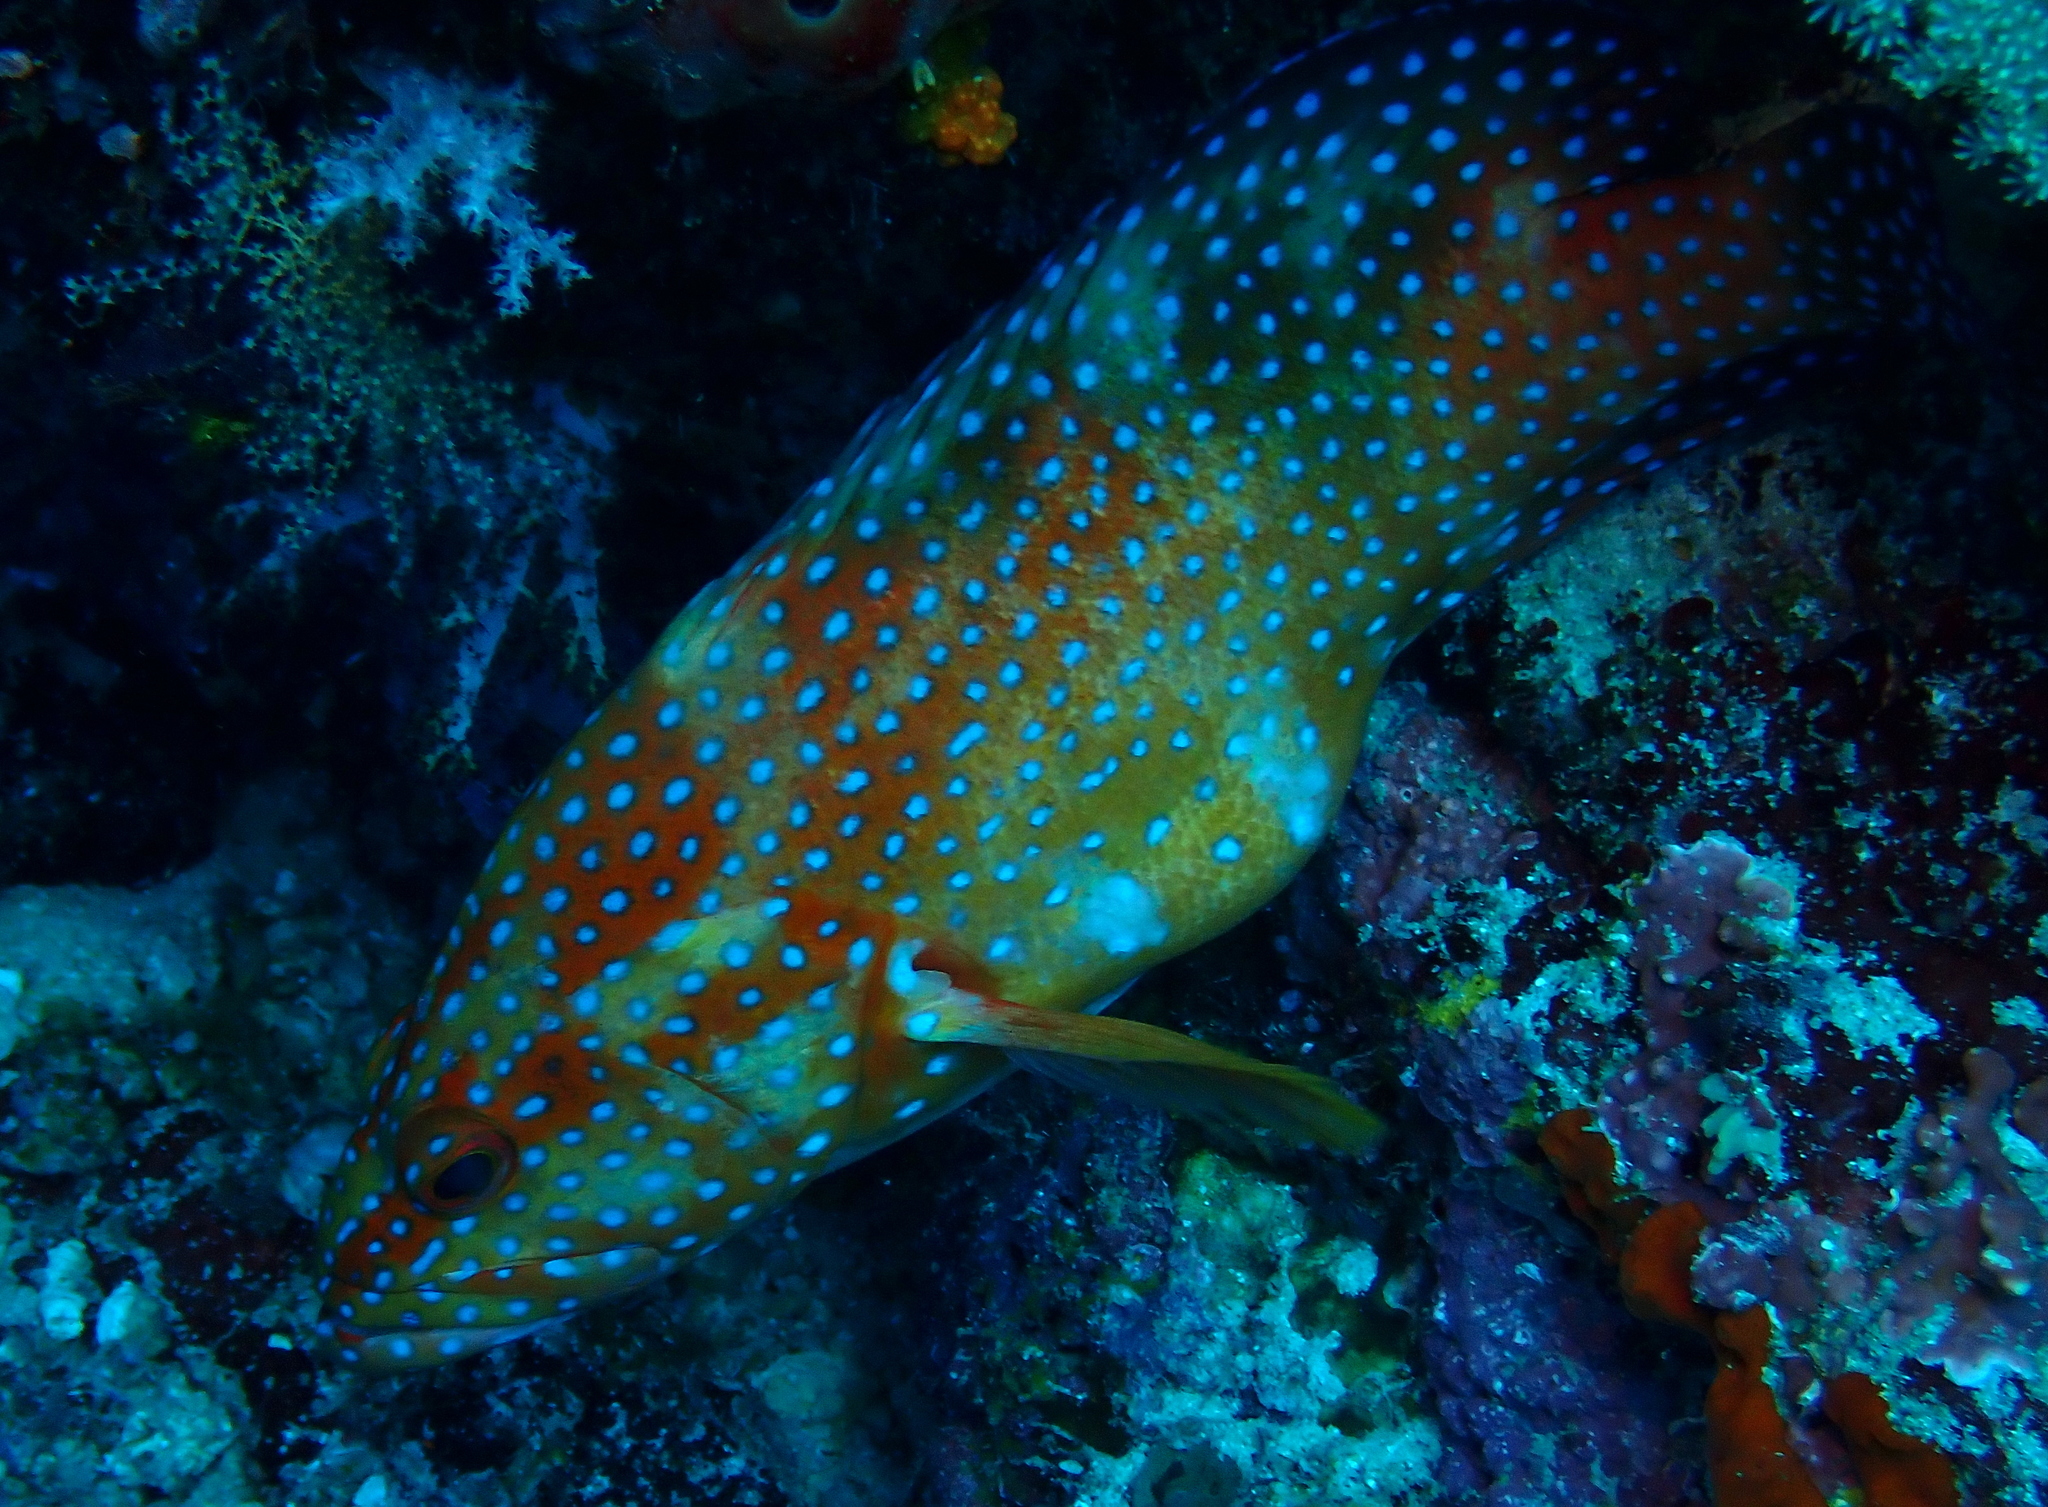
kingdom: Animalia
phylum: Chordata
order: Perciformes
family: Serranidae
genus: Cephalopholis
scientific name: Cephalopholis miniata
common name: Coral hind
